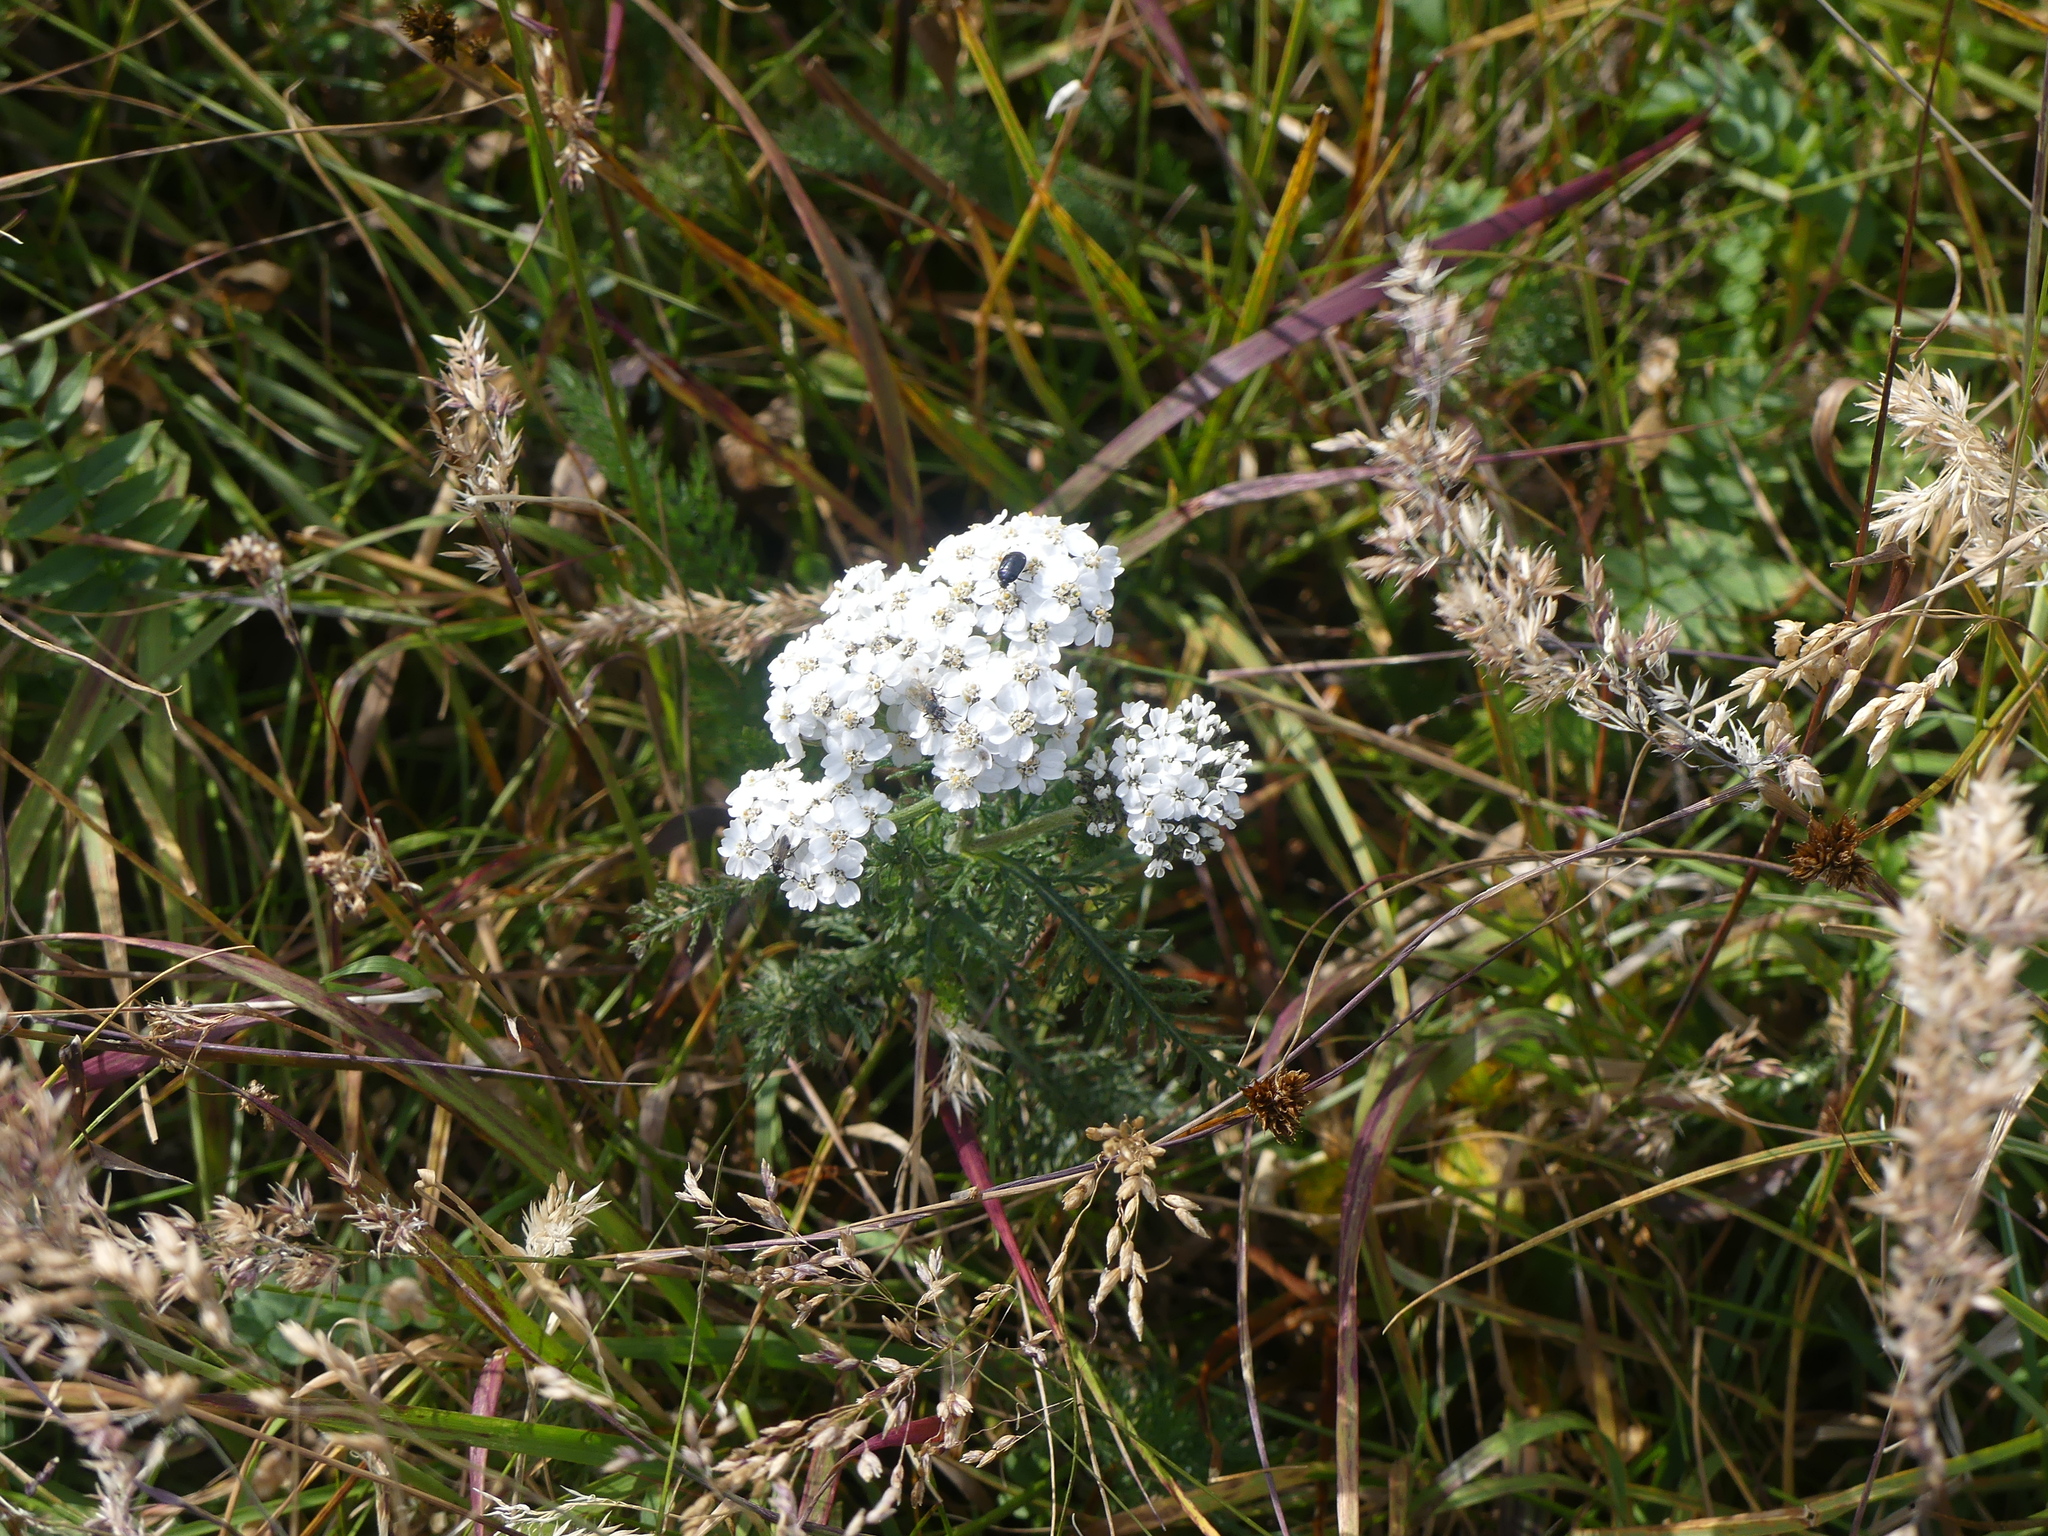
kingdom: Plantae
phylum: Tracheophyta
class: Magnoliopsida
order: Asterales
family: Asteraceae
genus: Achillea
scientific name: Achillea millefolium
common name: Yarrow
